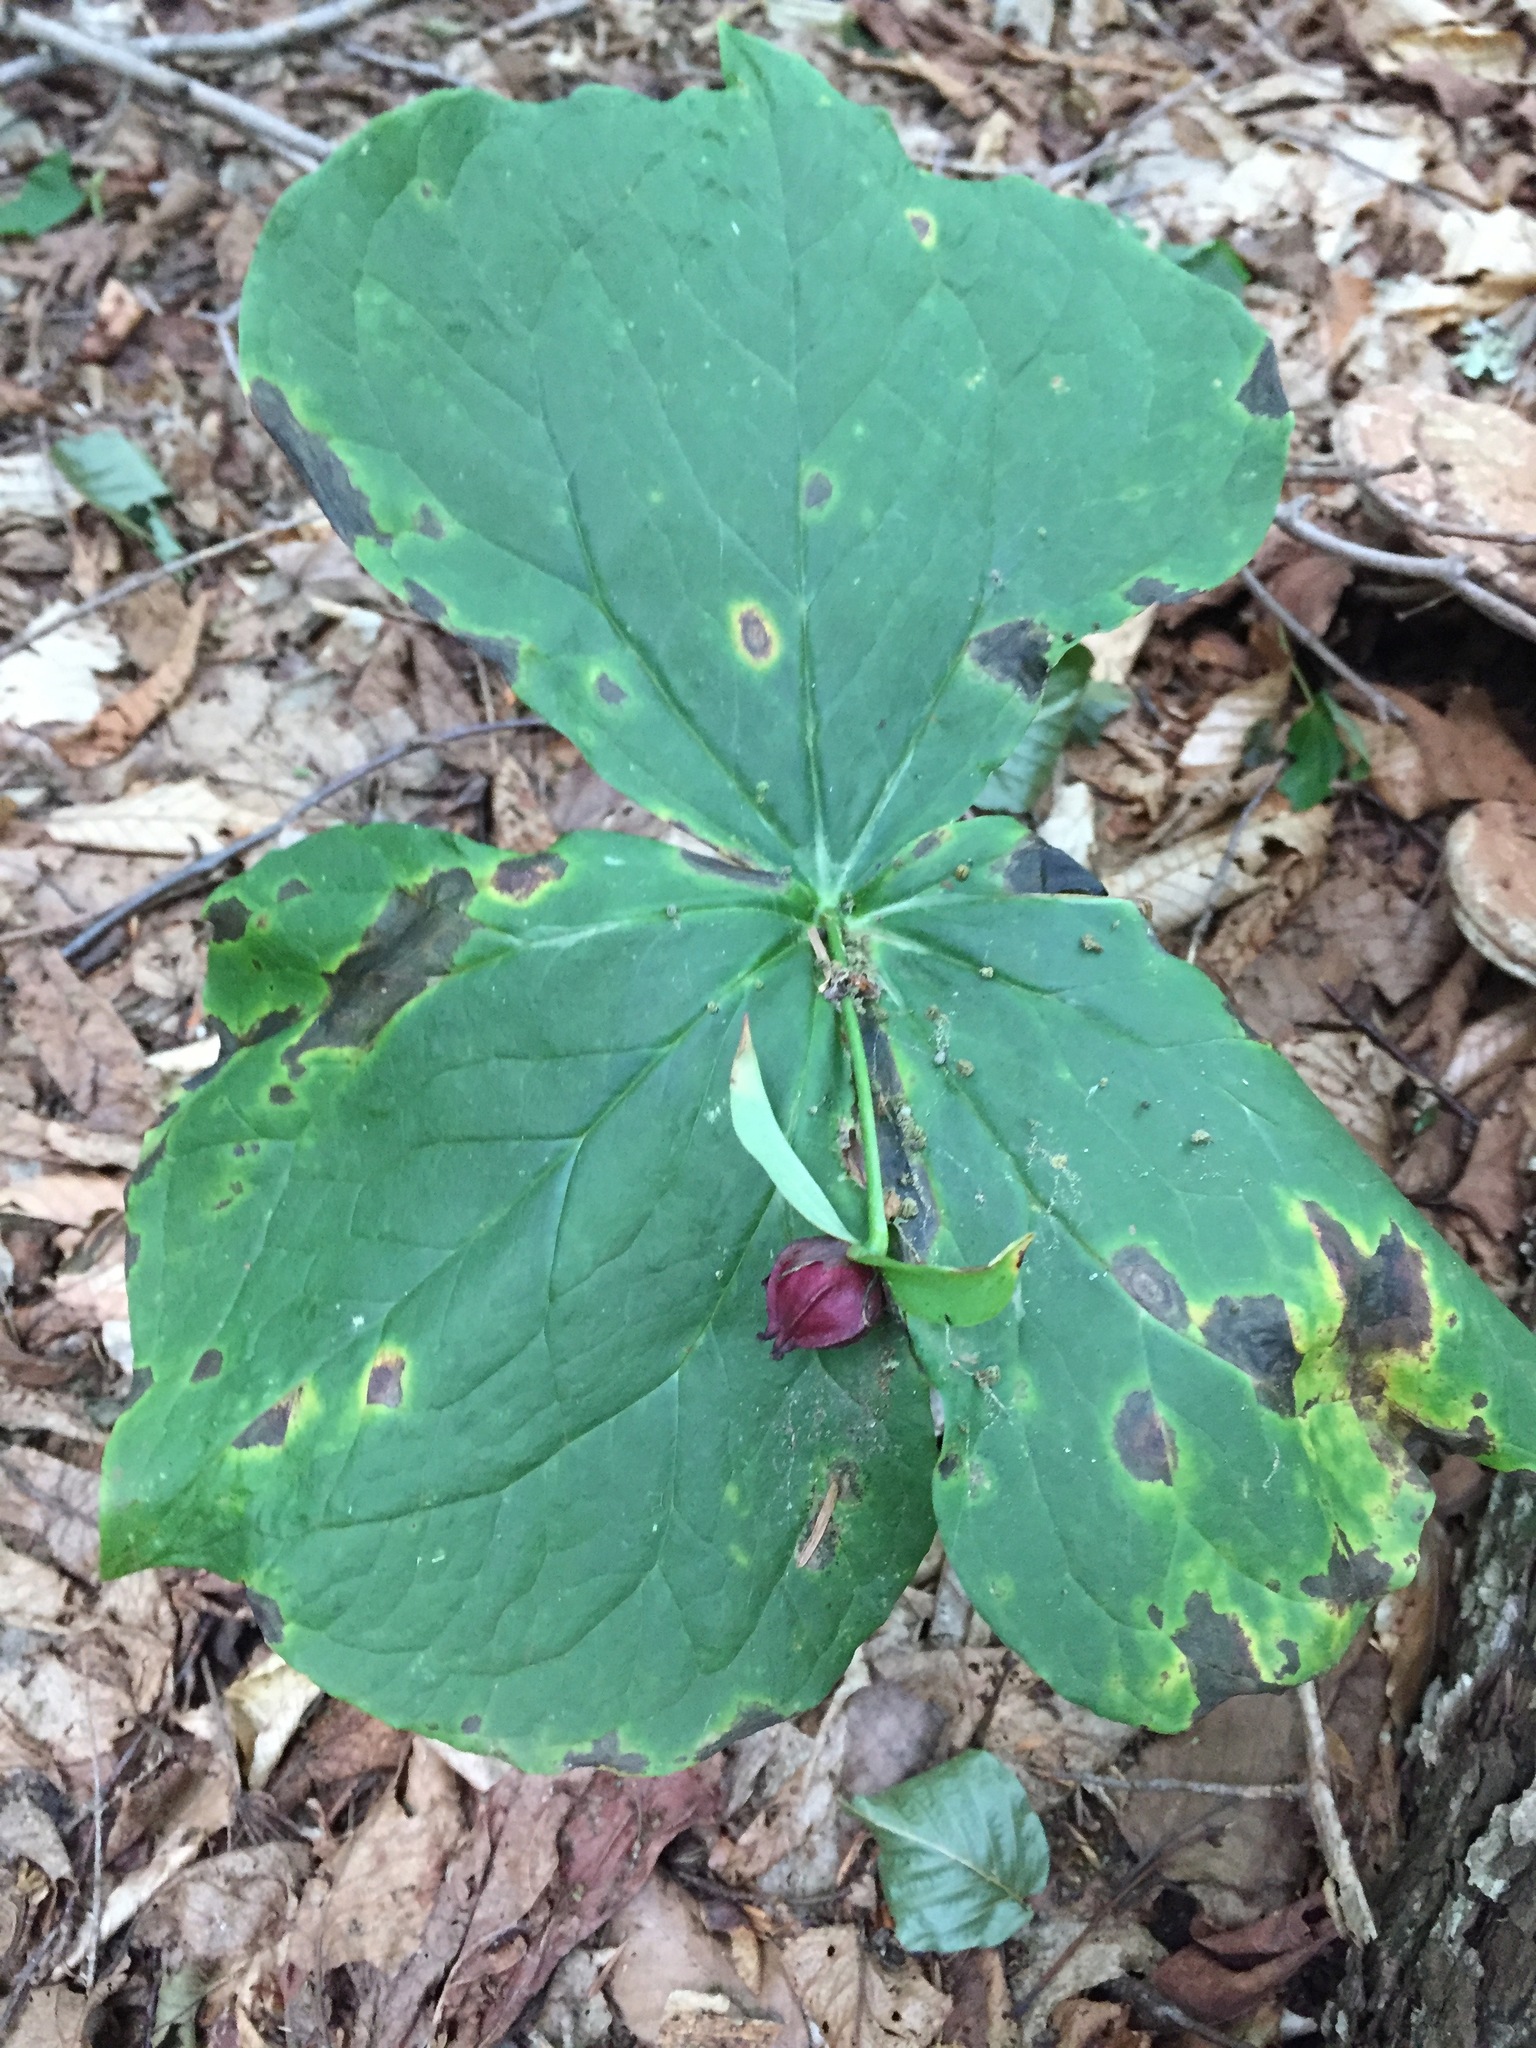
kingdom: Plantae
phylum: Tracheophyta
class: Liliopsida
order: Liliales
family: Melanthiaceae
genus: Trillium
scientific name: Trillium erectum
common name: Purple trillium
